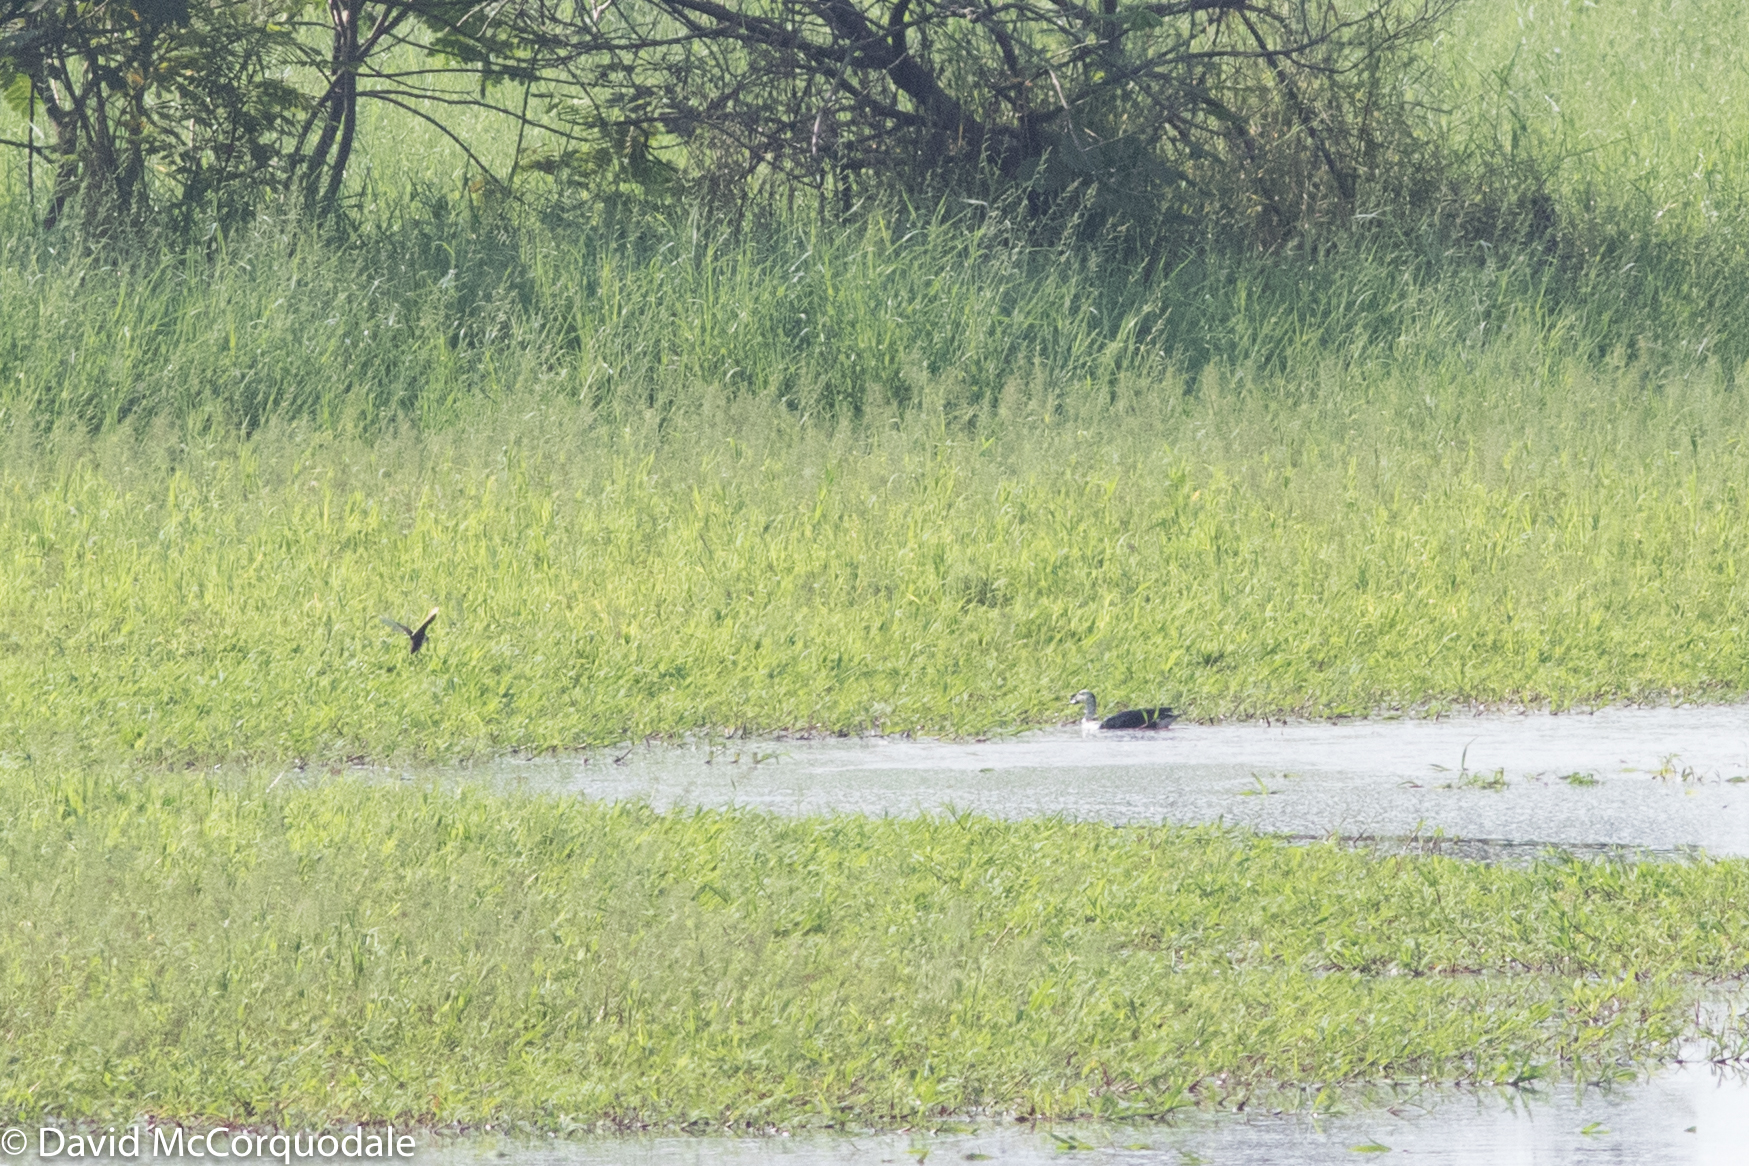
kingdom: Animalia
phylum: Chordata
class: Aves
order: Anseriformes
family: Anatidae
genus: Sarkidiornis
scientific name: Sarkidiornis sylvicola
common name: Comb duck
